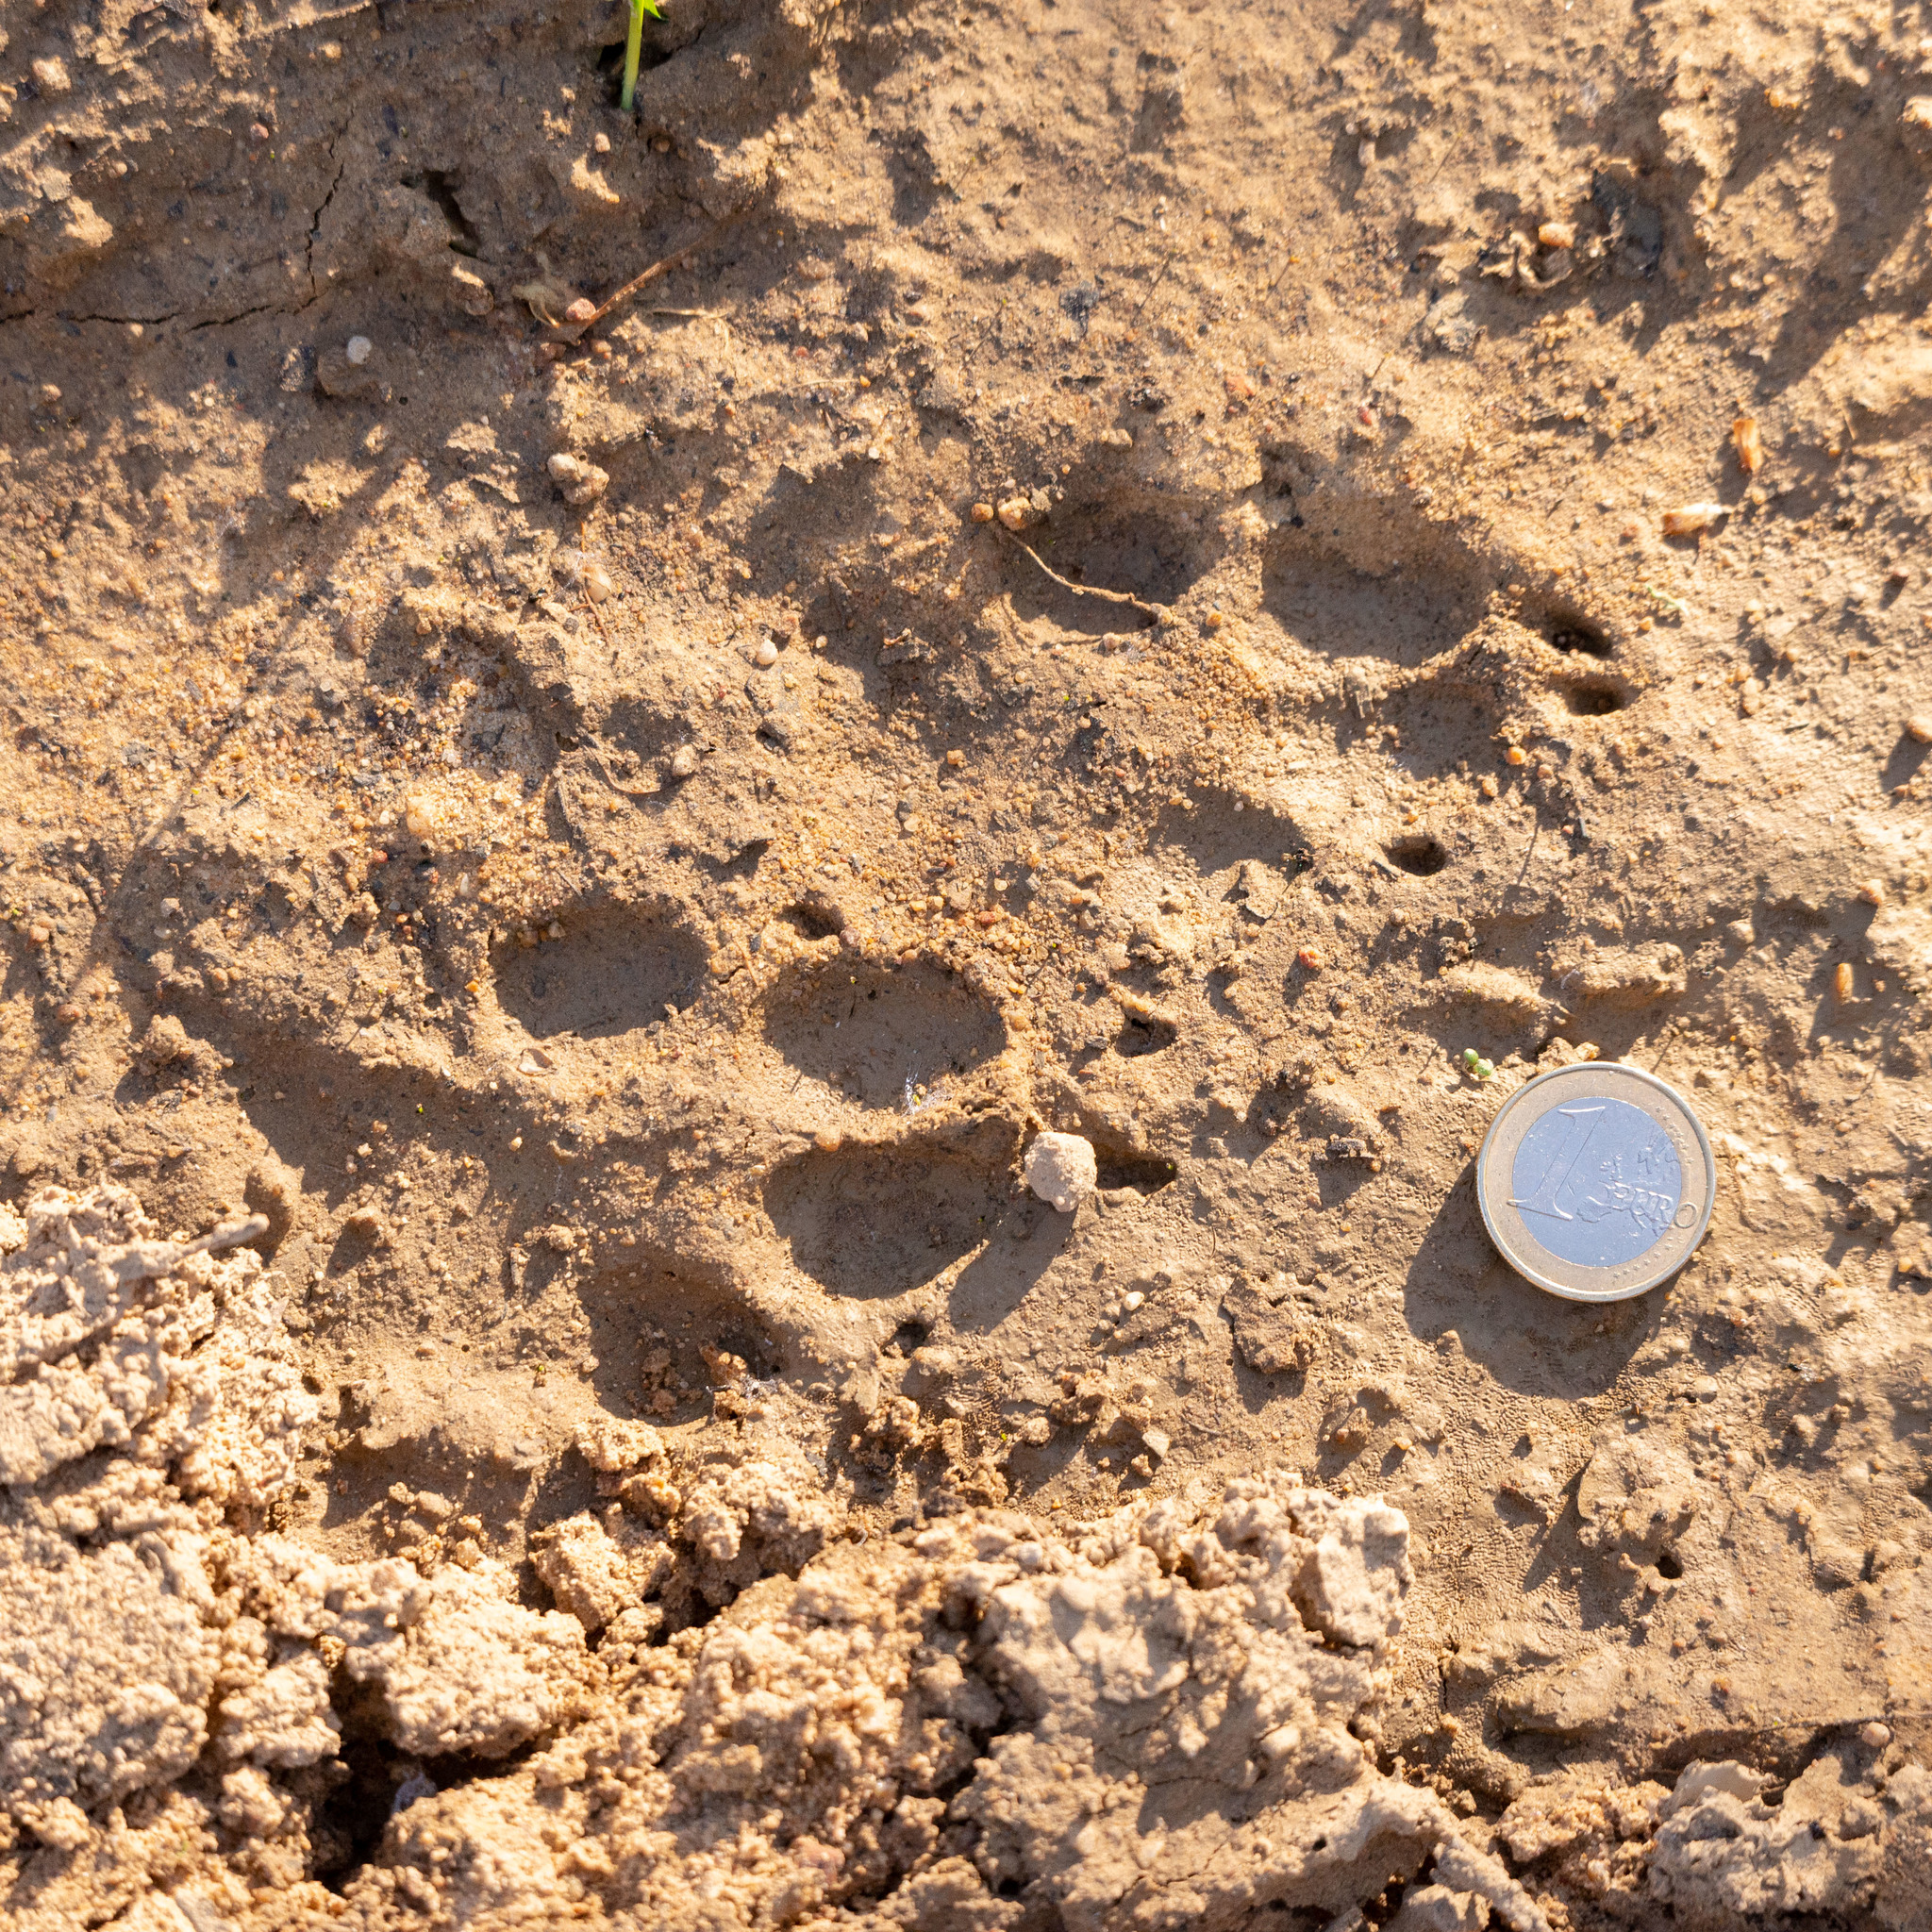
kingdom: Animalia
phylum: Chordata
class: Mammalia
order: Carnivora
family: Canidae
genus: Vulpes
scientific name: Vulpes vulpes
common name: Red fox
